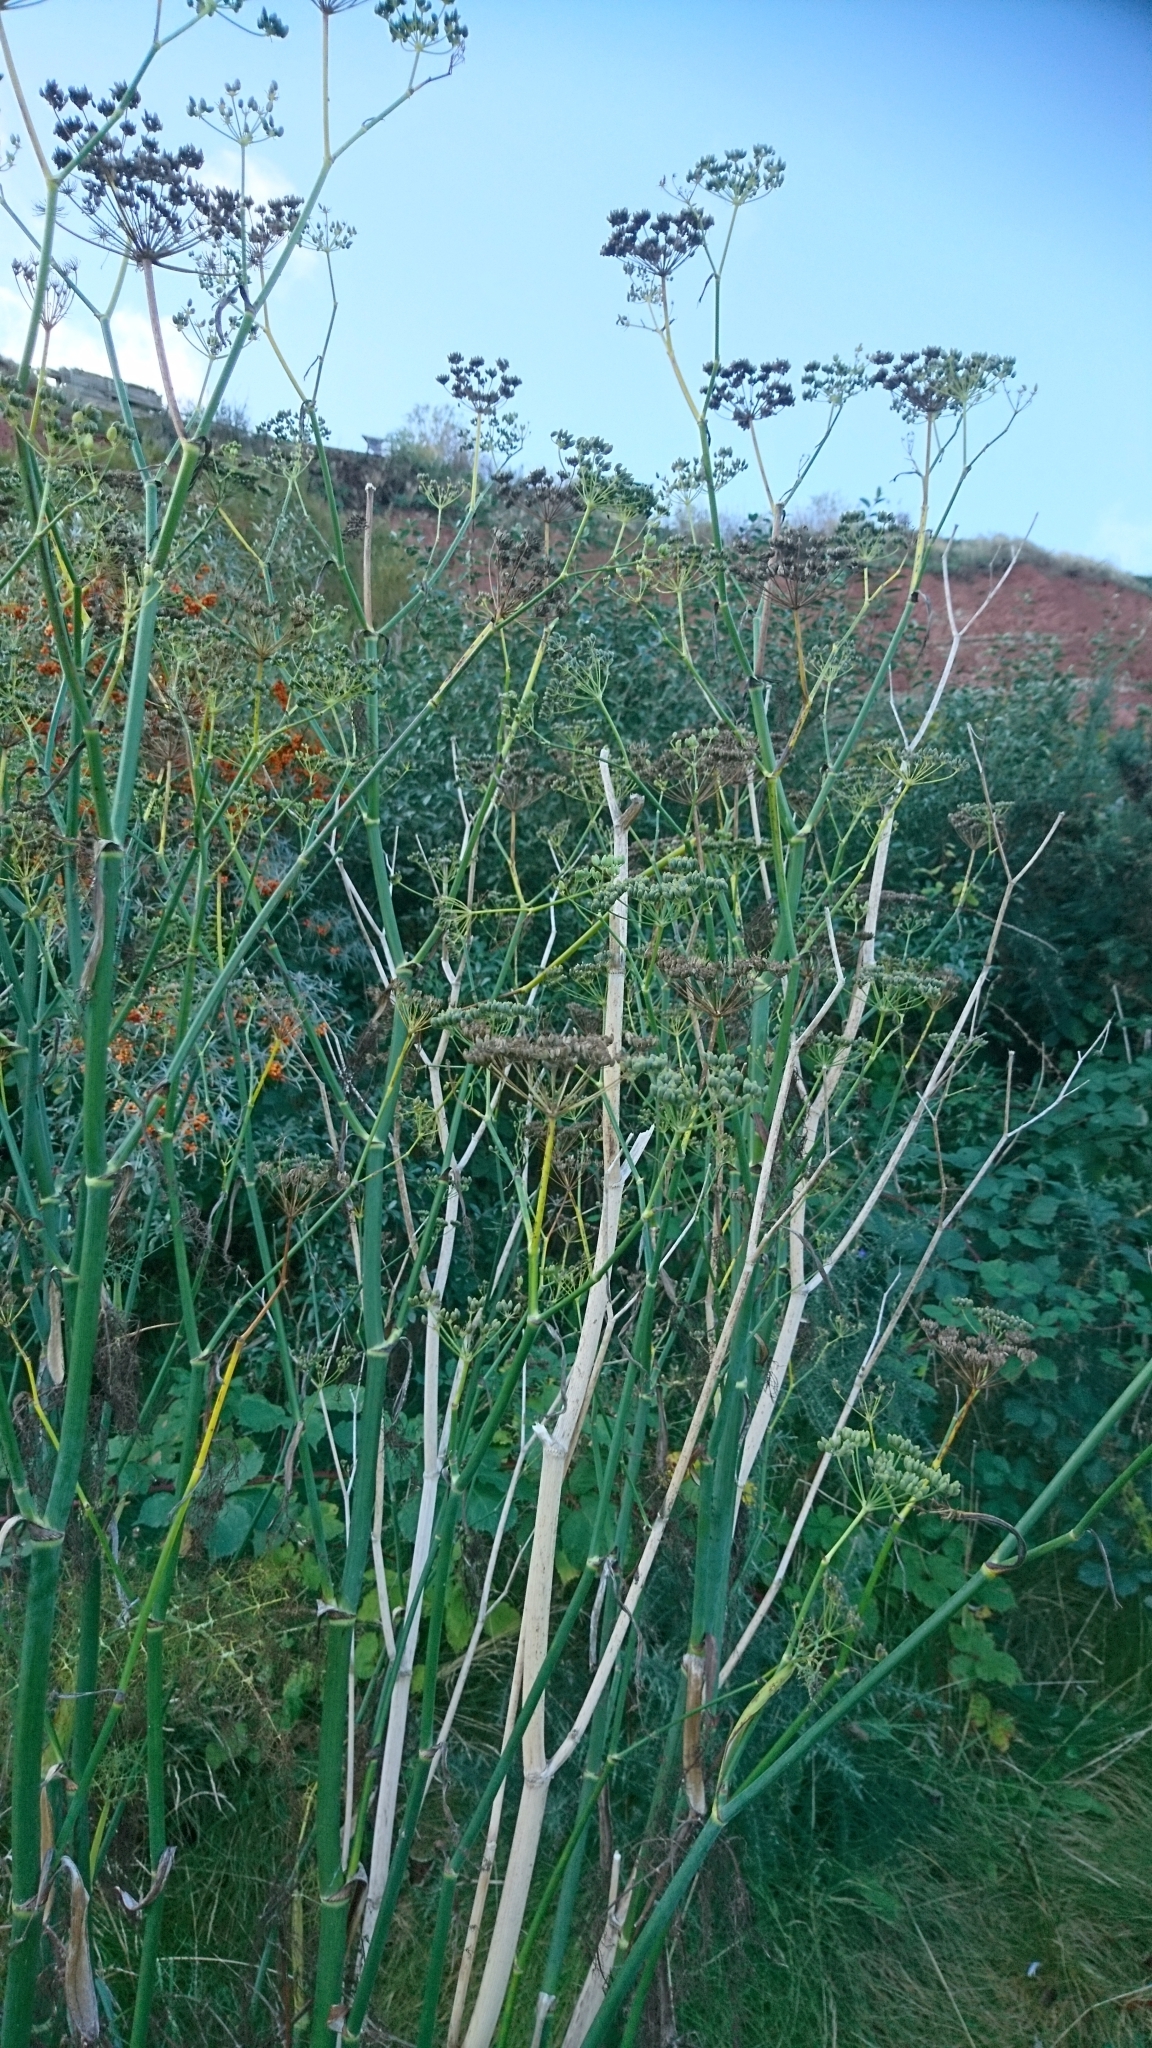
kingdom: Plantae
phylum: Tracheophyta
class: Magnoliopsida
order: Apiales
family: Apiaceae
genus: Foeniculum
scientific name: Foeniculum vulgare
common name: Fennel
